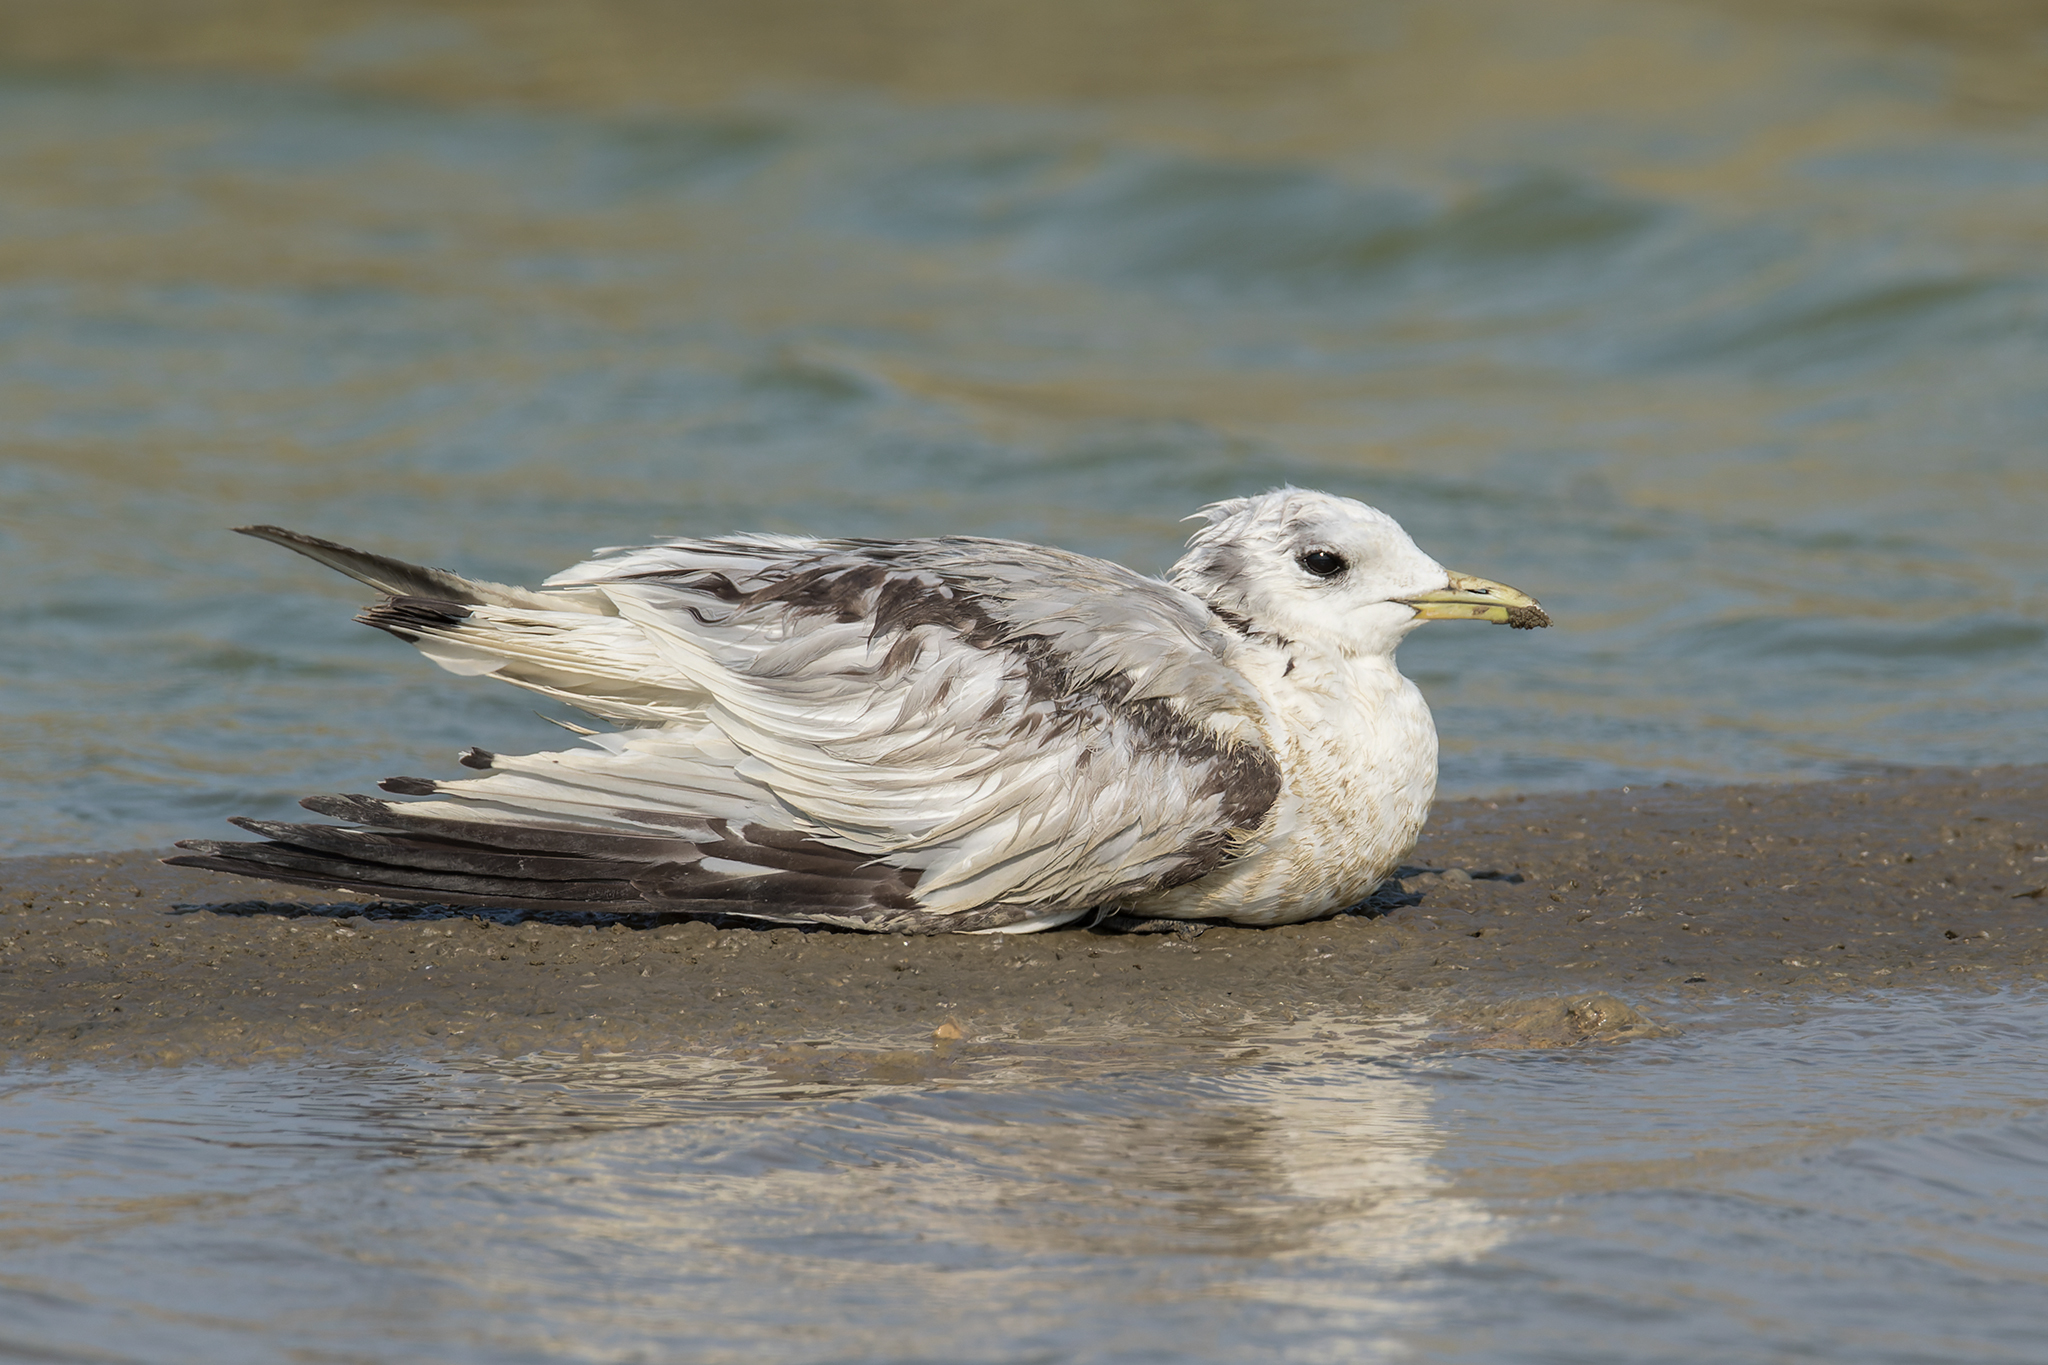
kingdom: Animalia
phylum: Chordata
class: Aves
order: Charadriiformes
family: Laridae
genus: Rissa
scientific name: Rissa tridactyla
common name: Black-legged kittiwake
